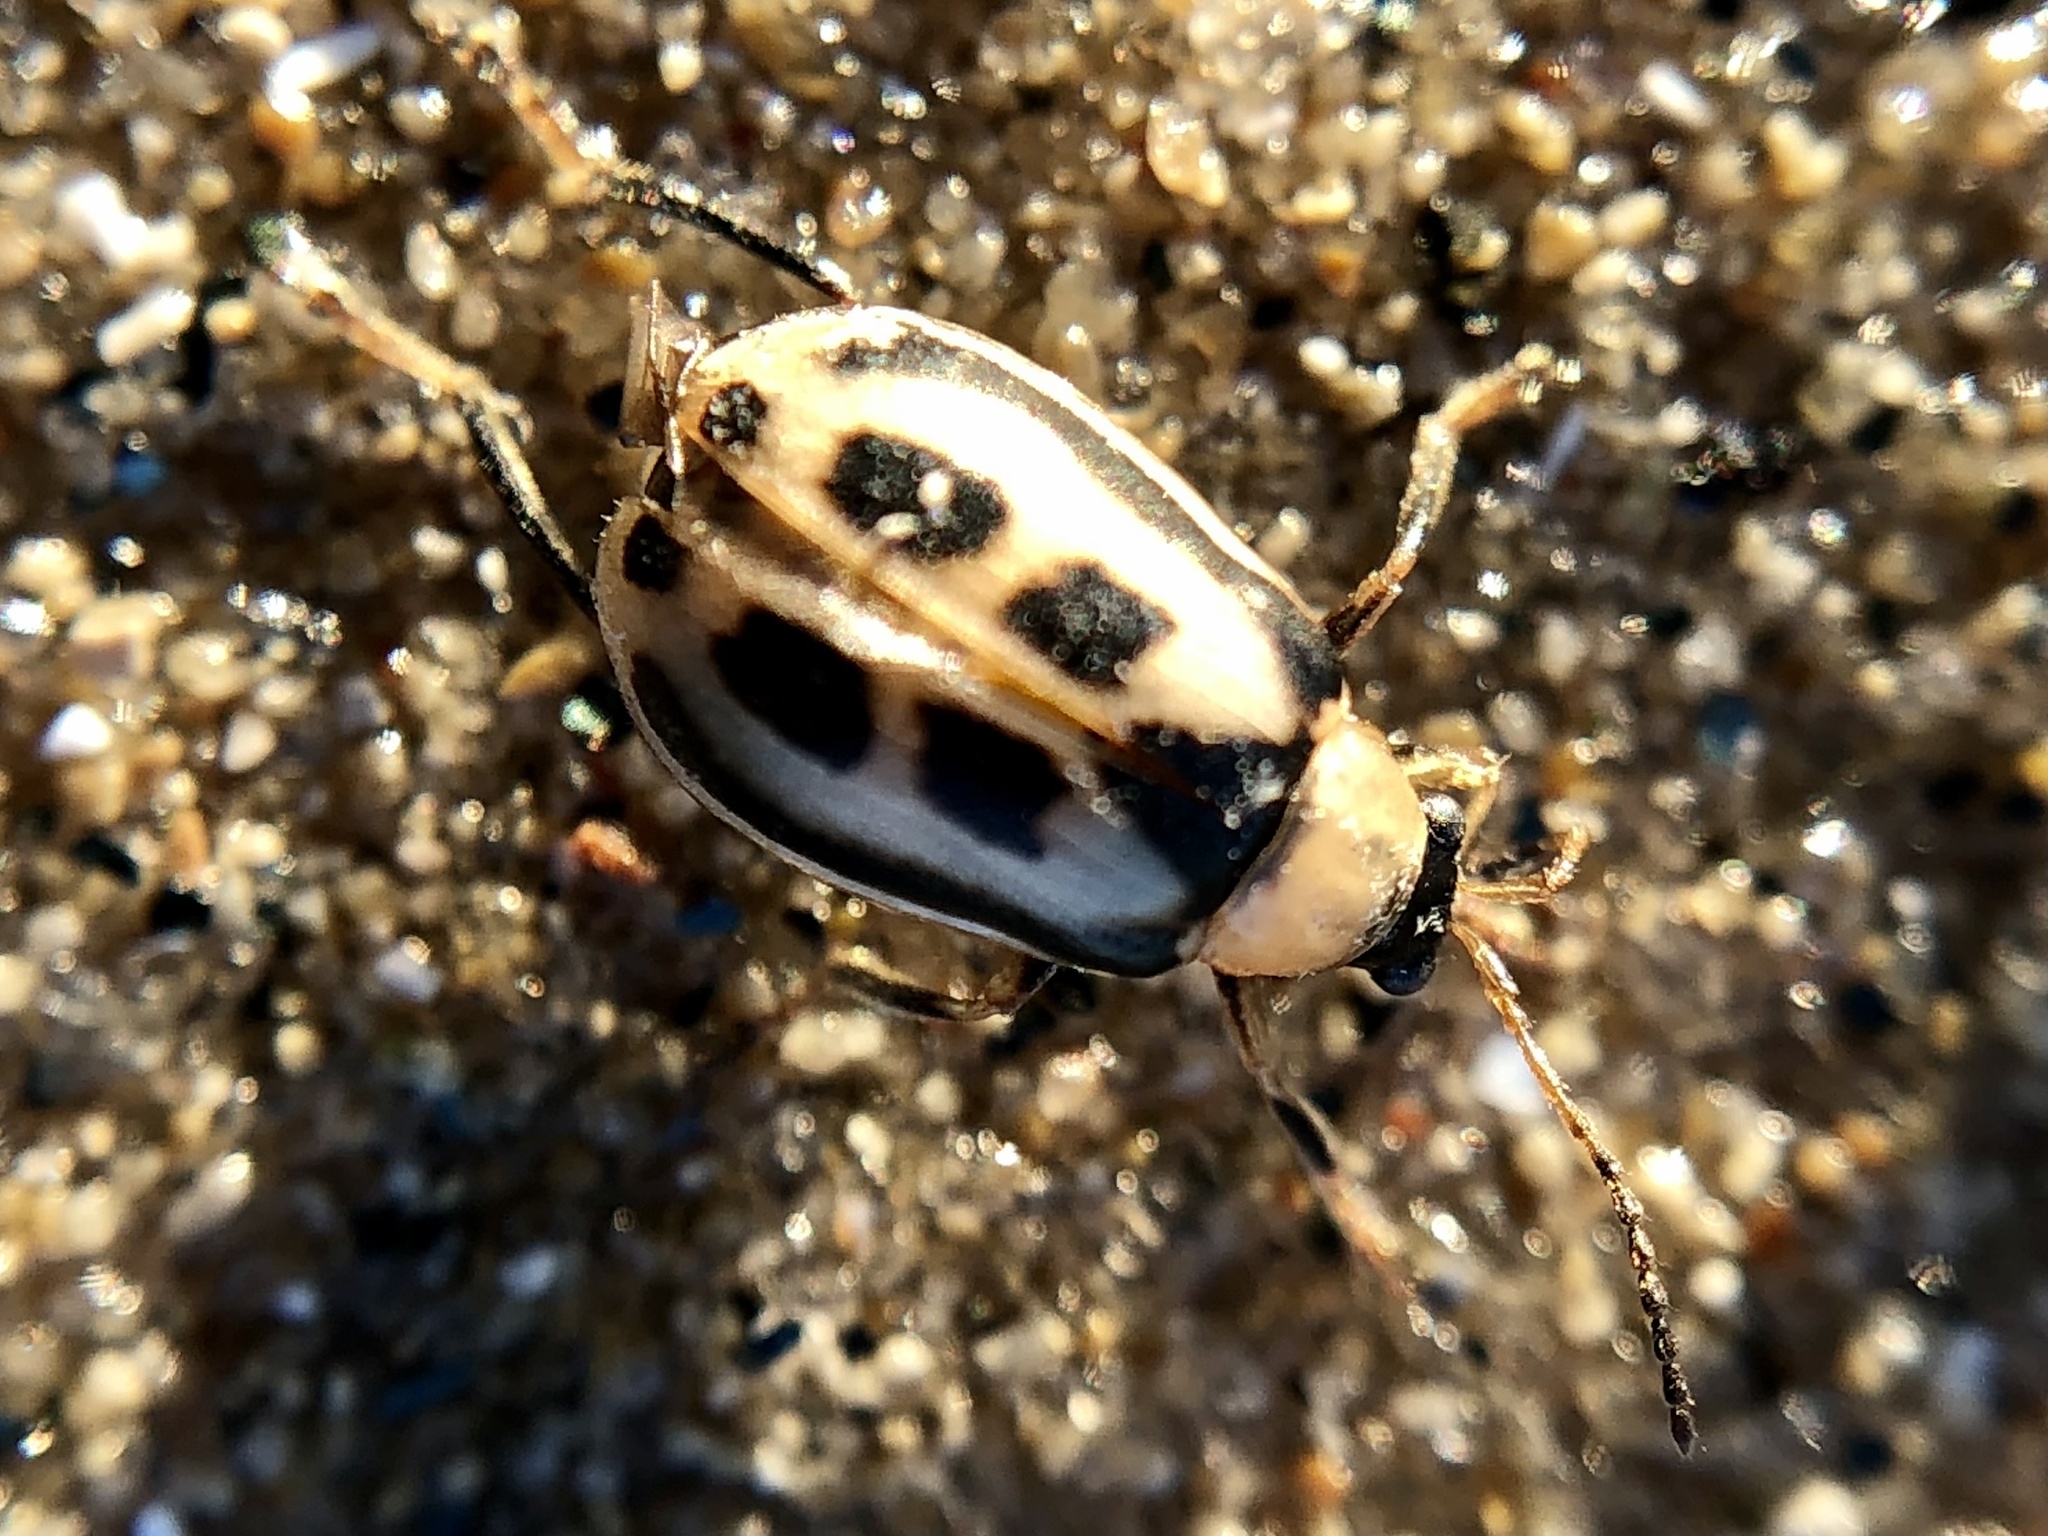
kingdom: Animalia
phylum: Arthropoda
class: Insecta
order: Coleoptera
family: Chrysomelidae
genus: Cerotoma
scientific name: Cerotoma trifurcata
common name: Bean leaf beetle
